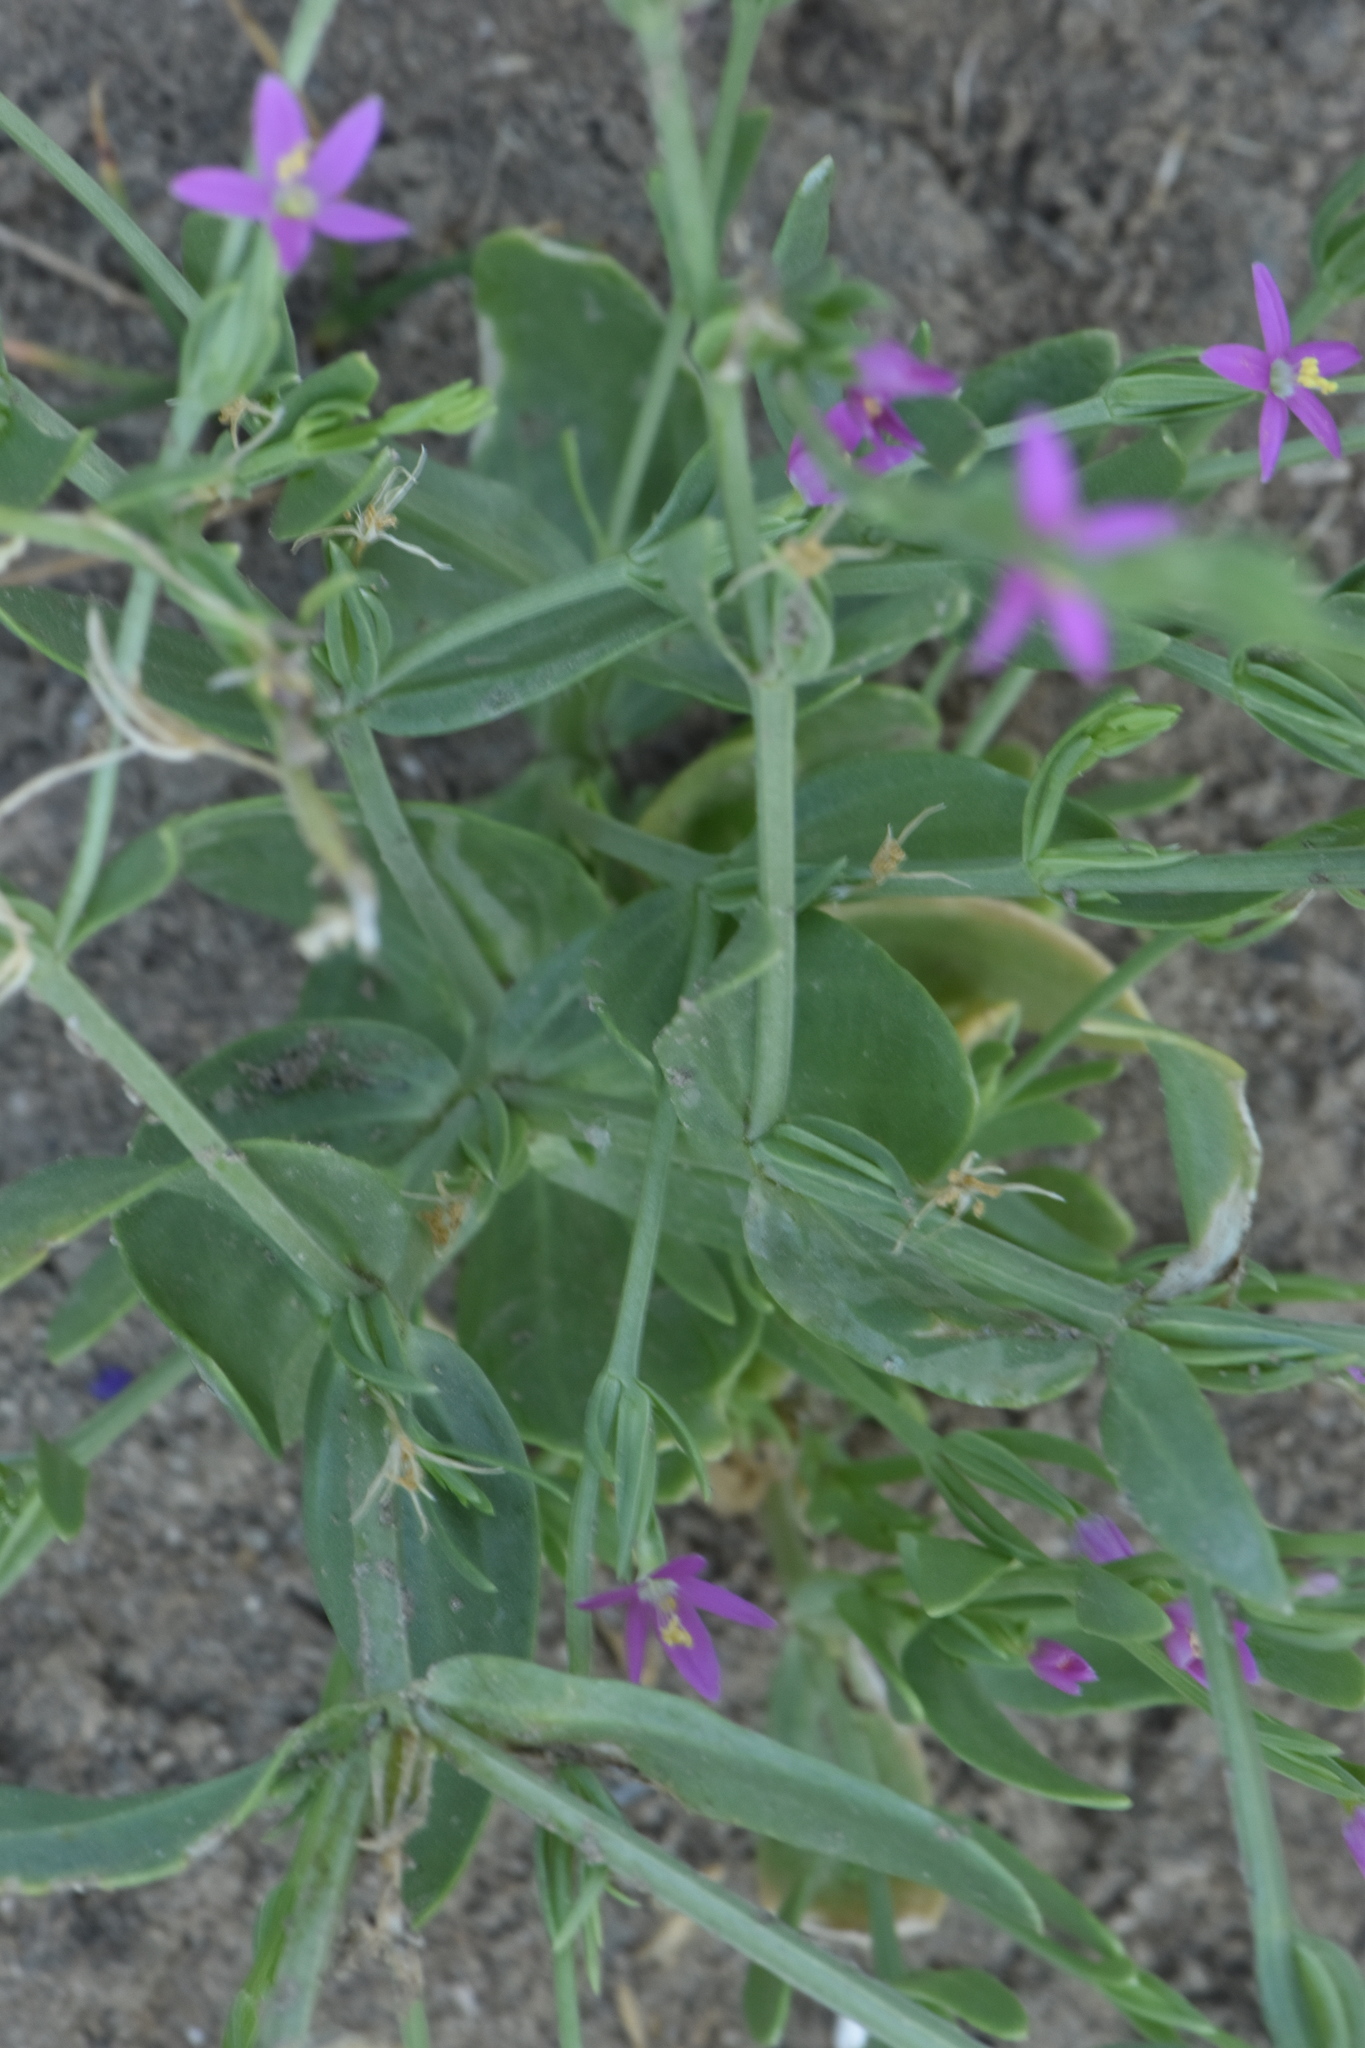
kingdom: Plantae
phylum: Tracheophyta
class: Magnoliopsida
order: Gentianales
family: Gentianaceae
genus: Schenkia
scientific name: Schenkia spicata
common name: Spiked centaury
